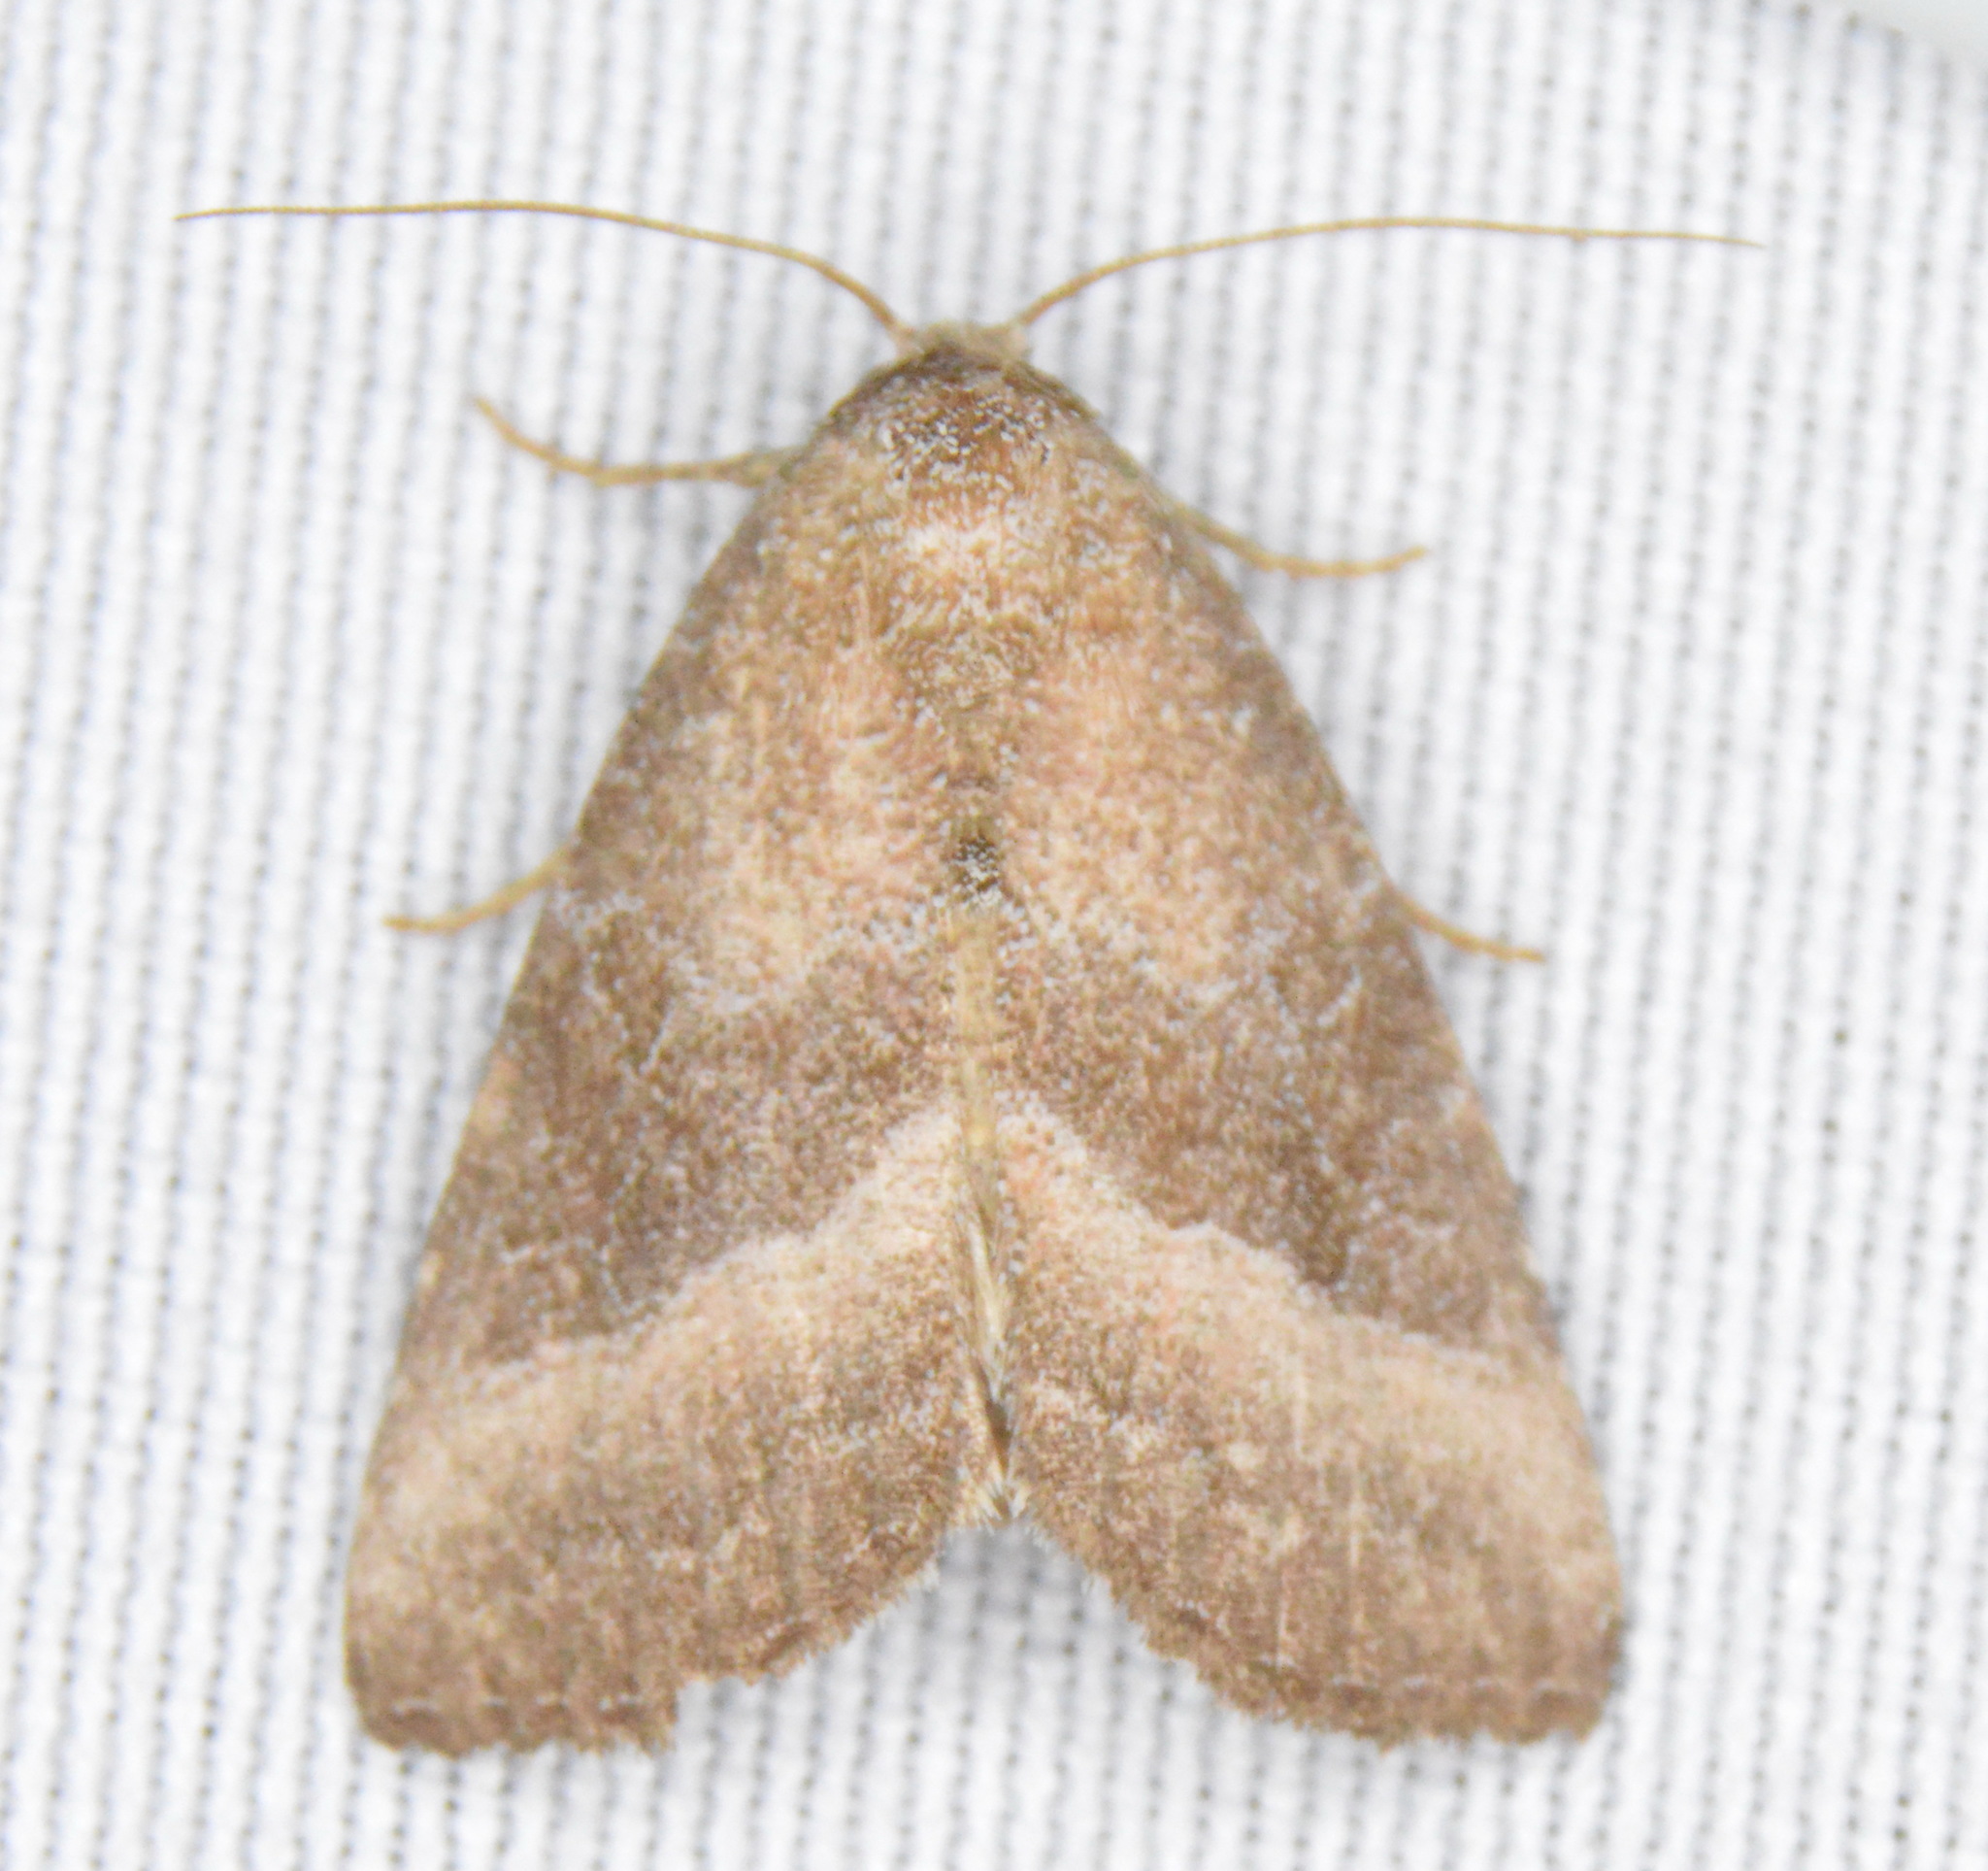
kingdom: Animalia
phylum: Arthropoda
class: Insecta
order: Lepidoptera
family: Noctuidae
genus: Ogdoconta
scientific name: Ogdoconta cinereola
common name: Common pinkband
